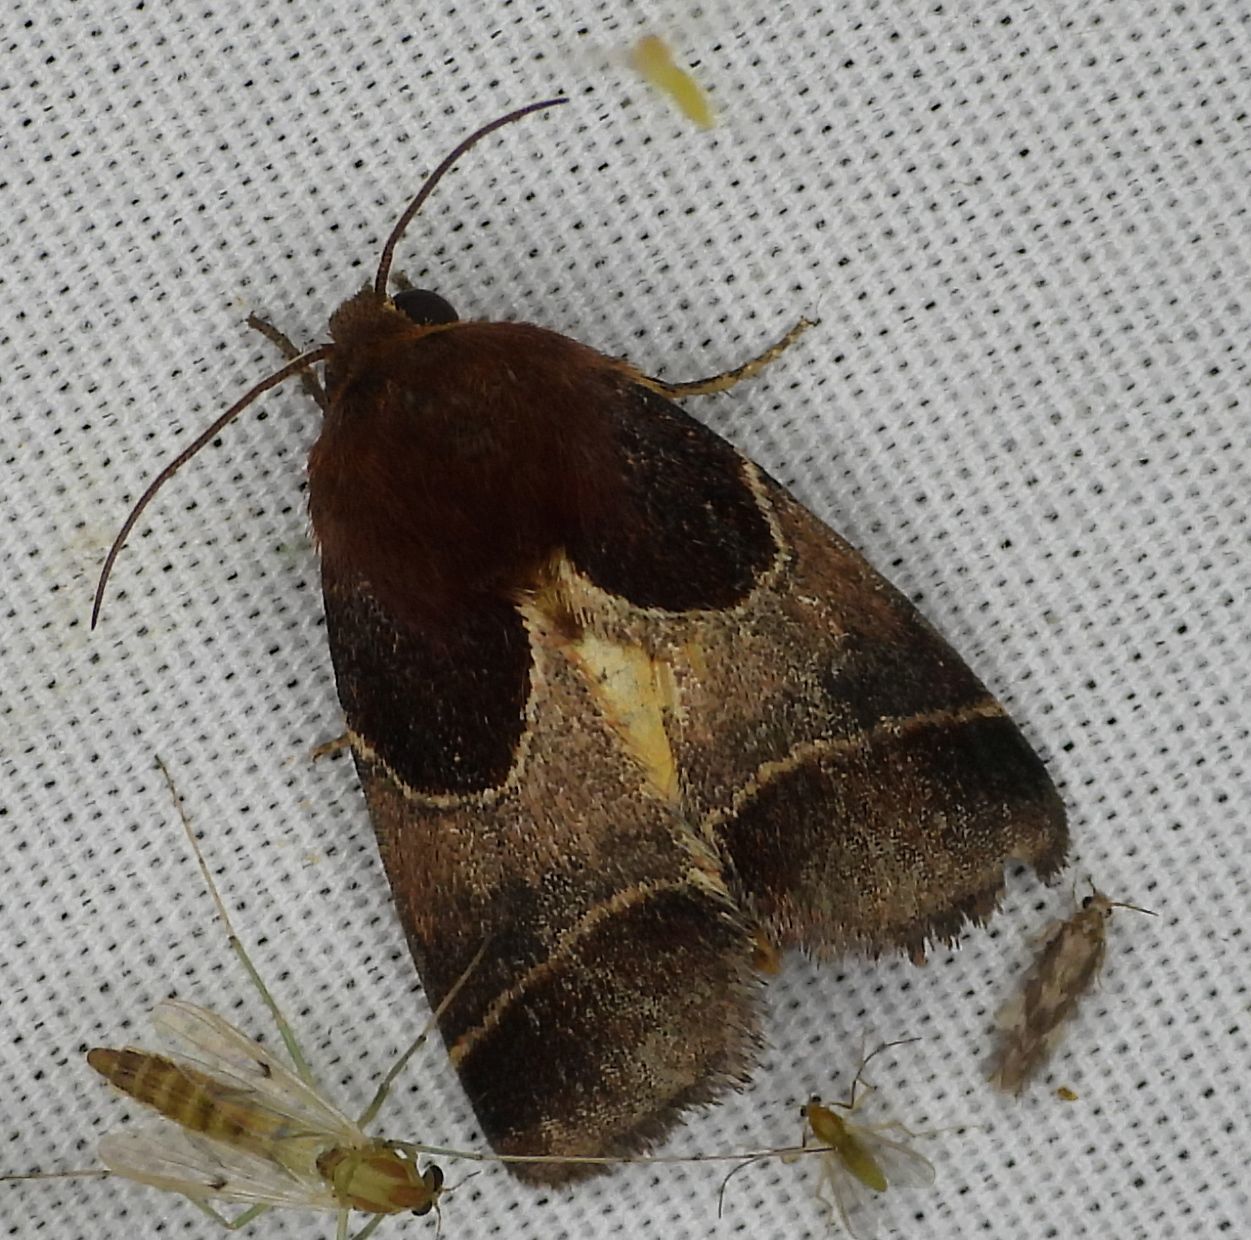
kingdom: Animalia
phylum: Arthropoda
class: Insecta
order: Lepidoptera
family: Noctuidae
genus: Schinia
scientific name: Schinia arcigera
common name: Arcigera flower moth
